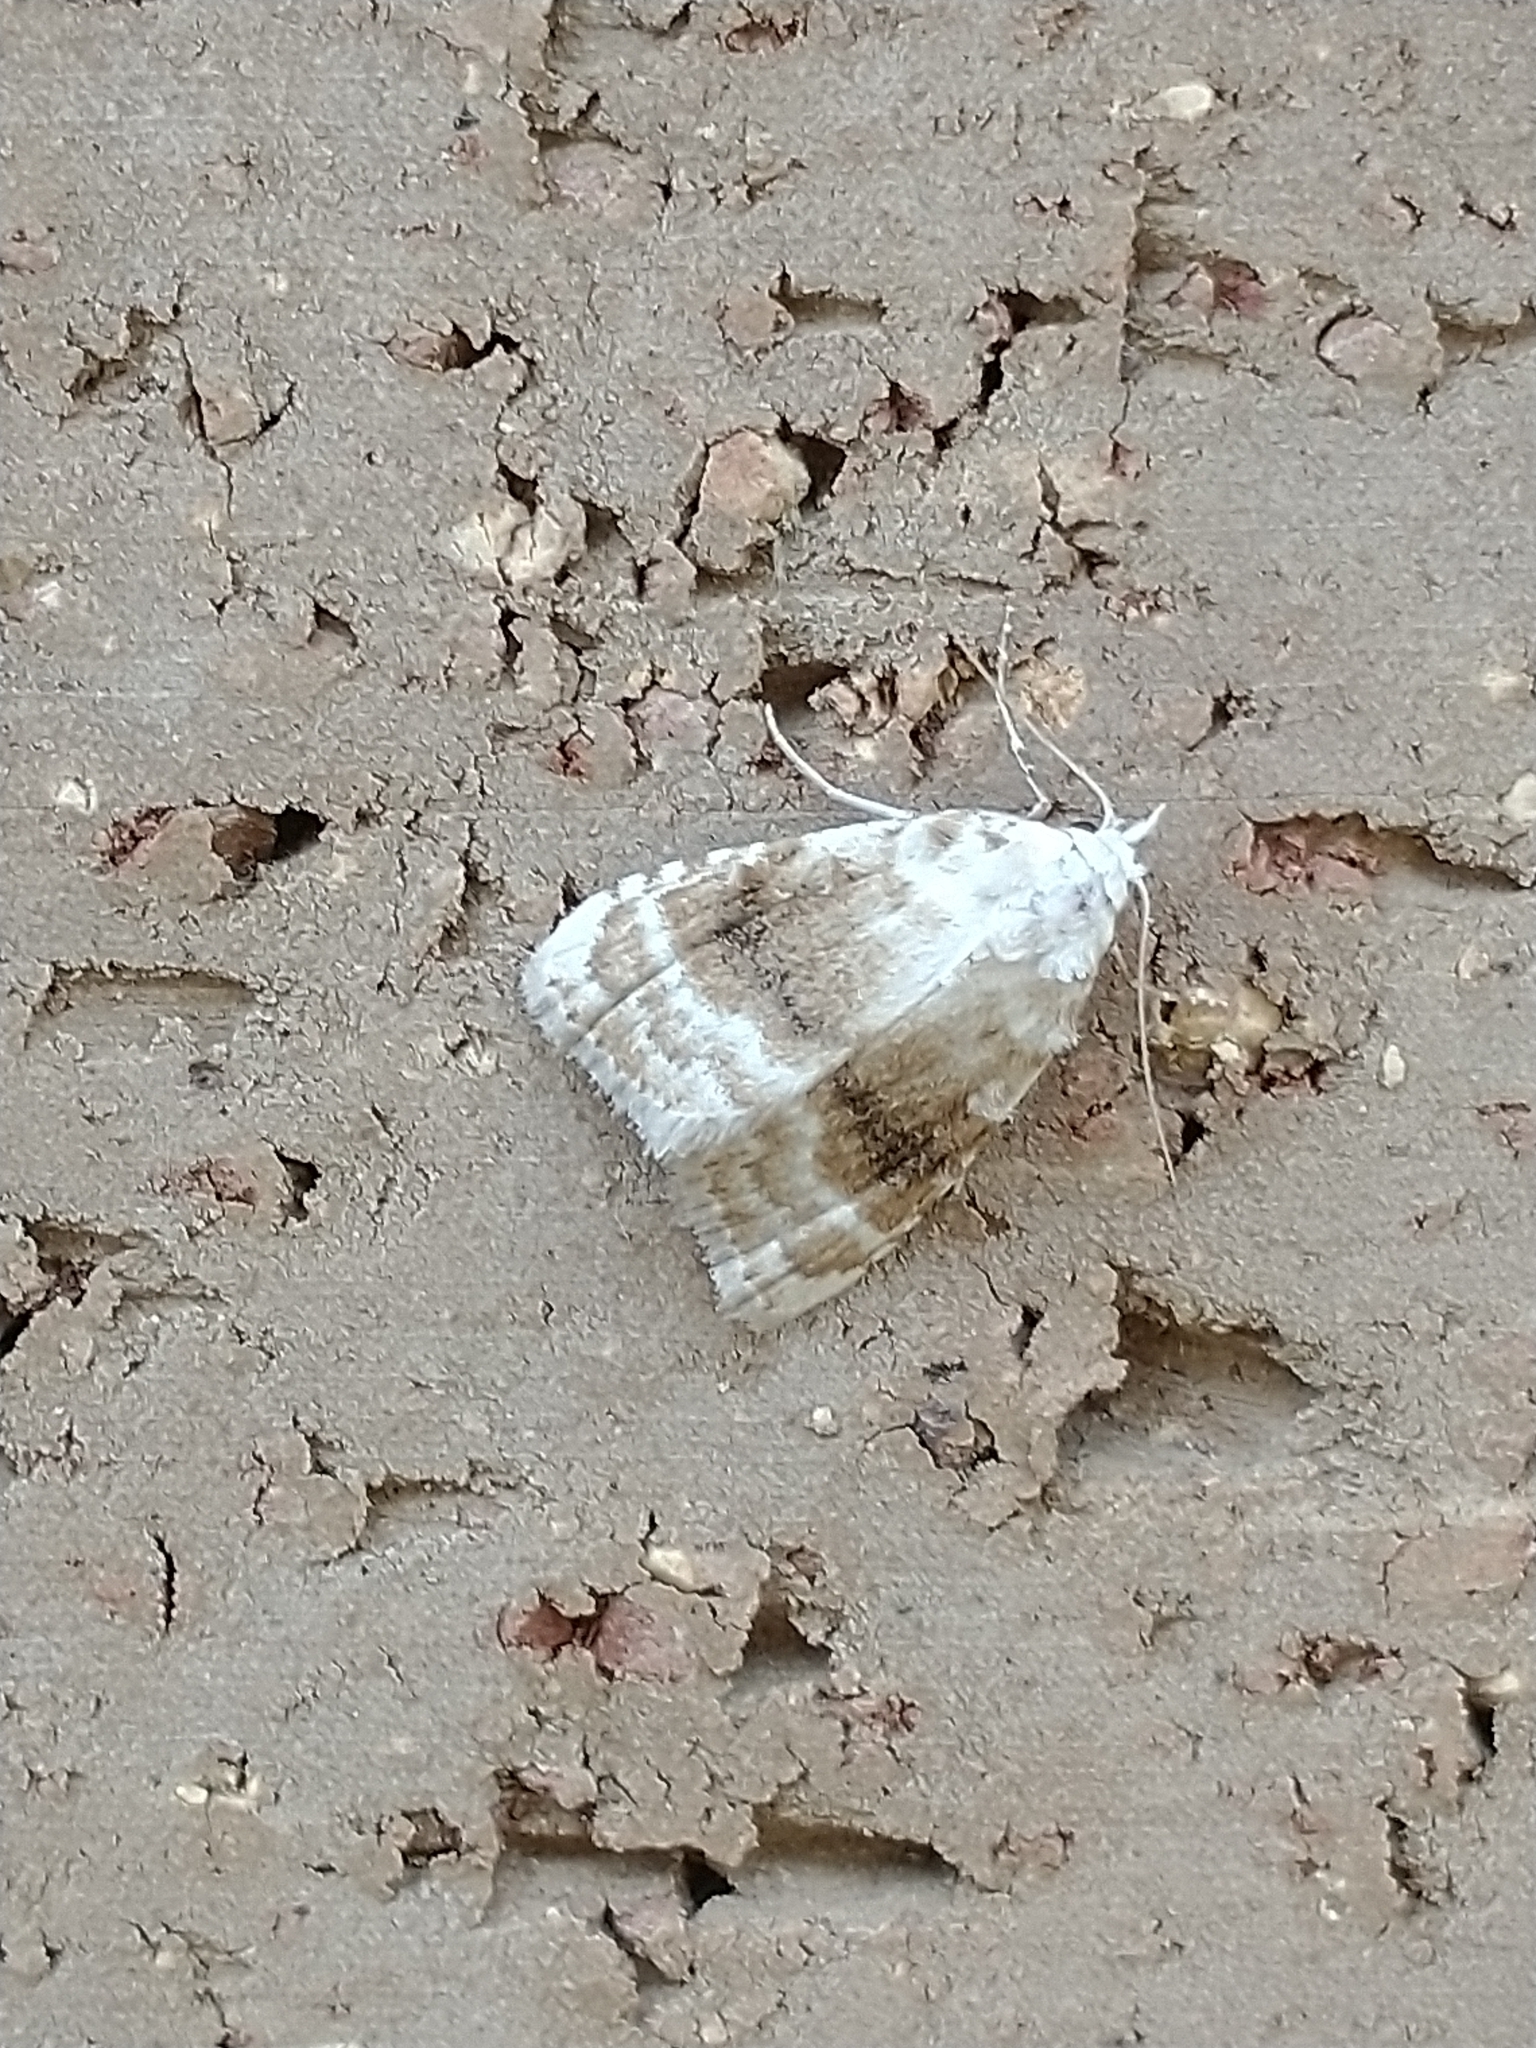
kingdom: Animalia
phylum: Arthropoda
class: Insecta
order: Lepidoptera
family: Nolidae
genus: Meganola
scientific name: Meganola albula
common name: Kent black arches
